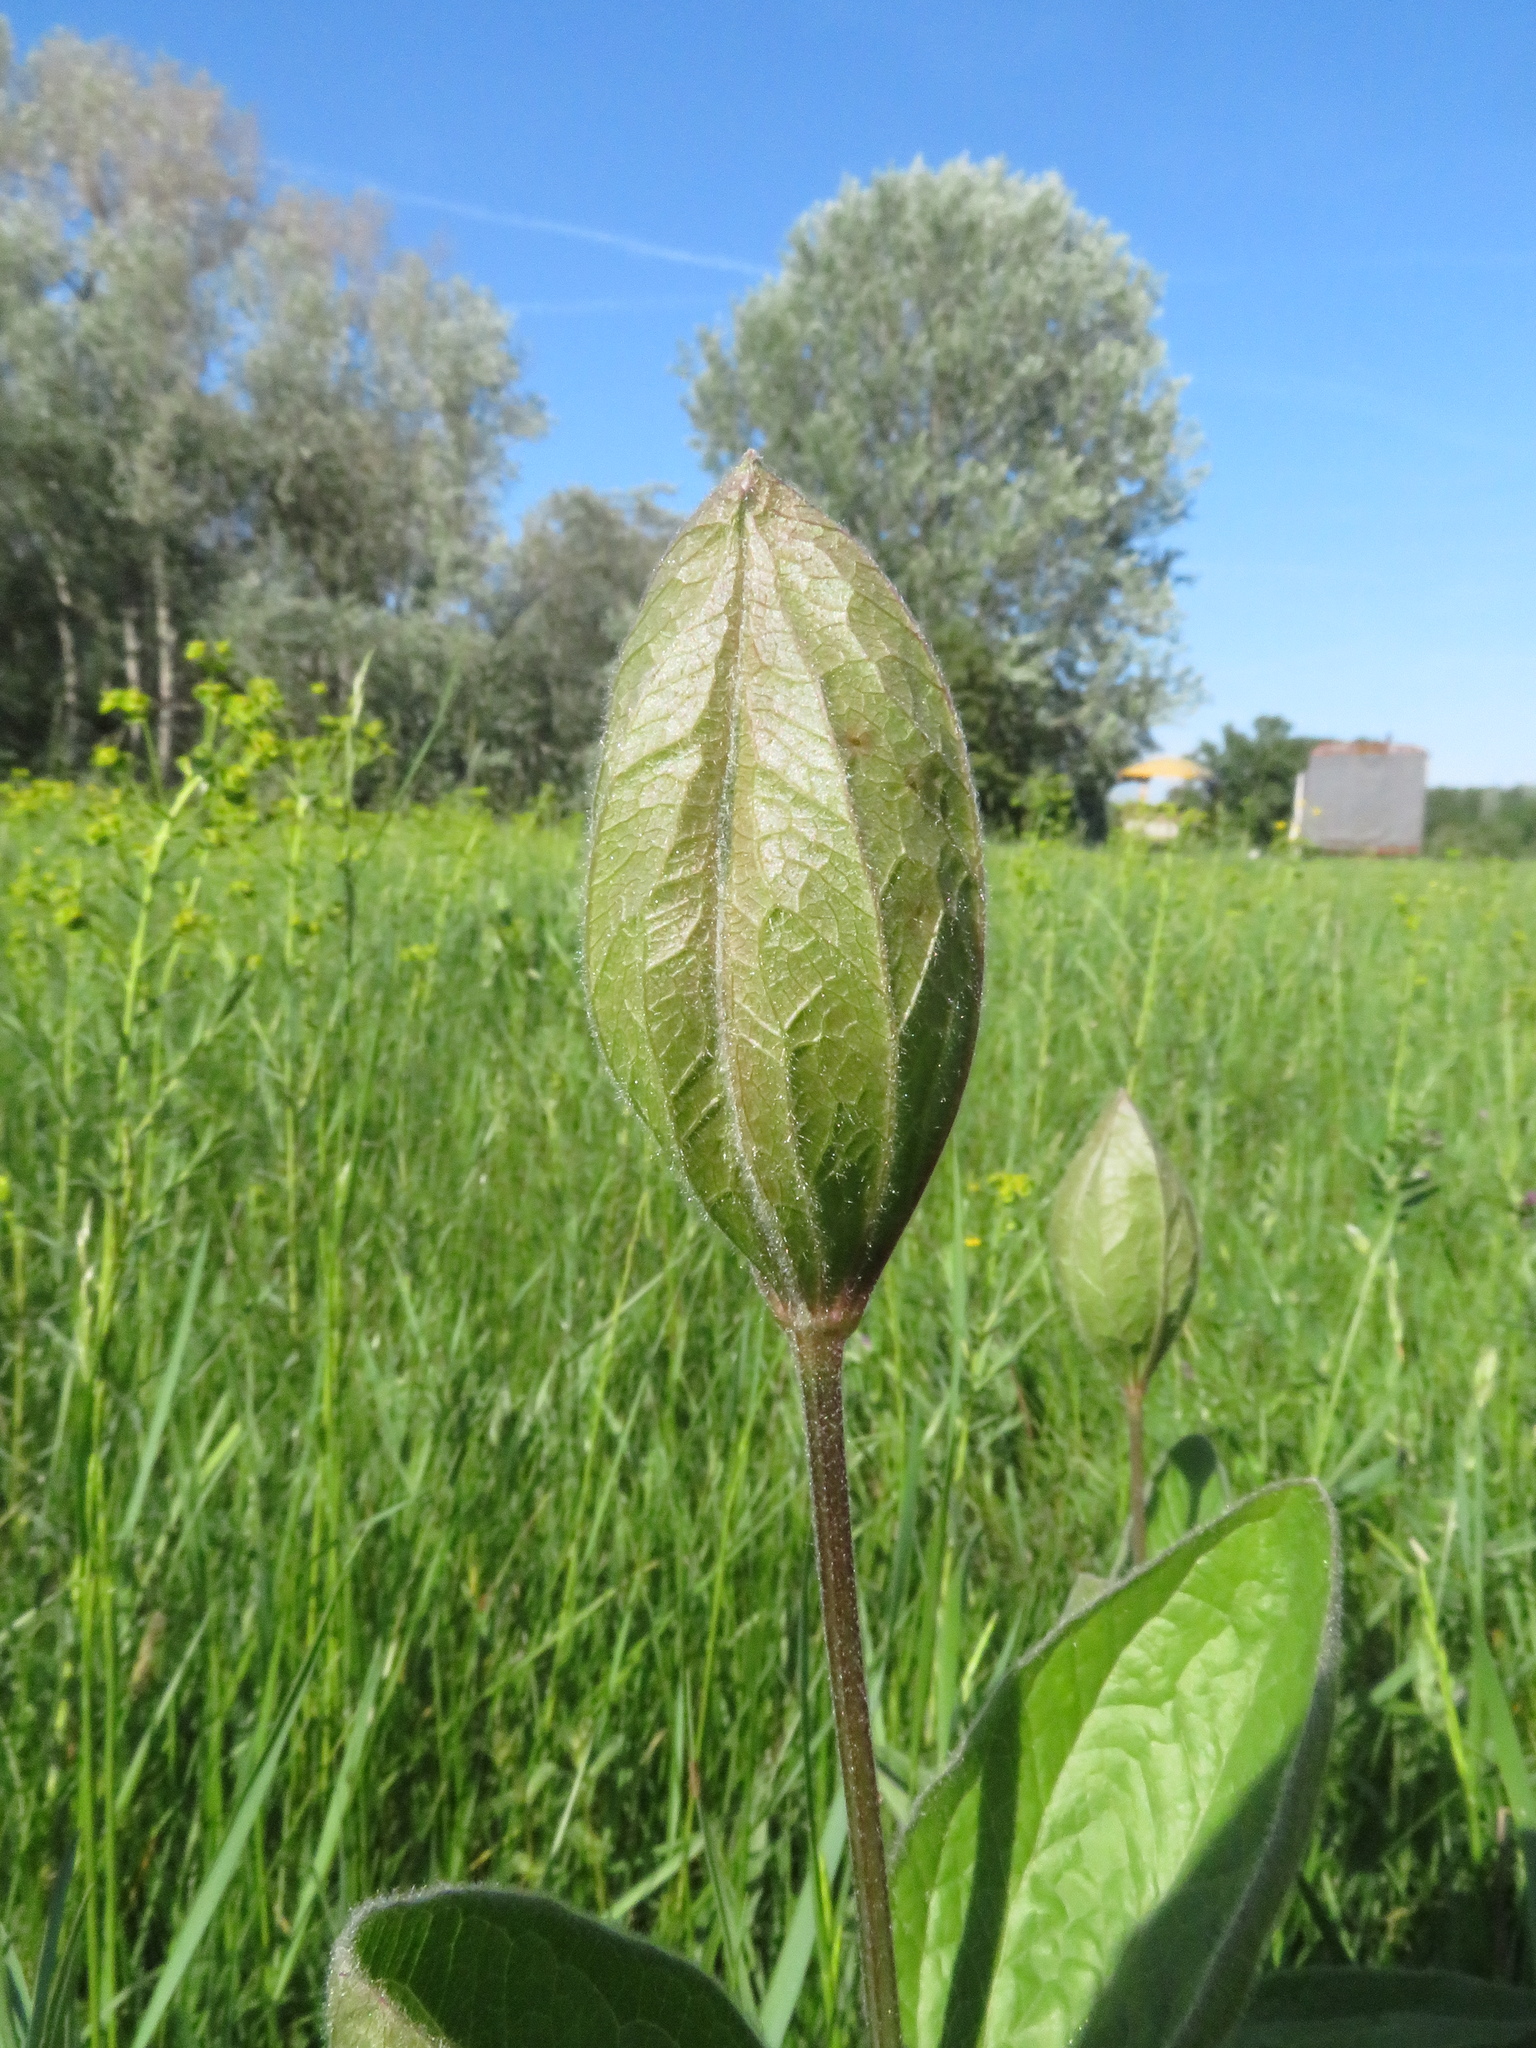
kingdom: Plantae
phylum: Tracheophyta
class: Magnoliopsida
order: Ranunculales
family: Ranunculaceae
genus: Clematis
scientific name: Clematis integrifolia
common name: Solitary clematis
